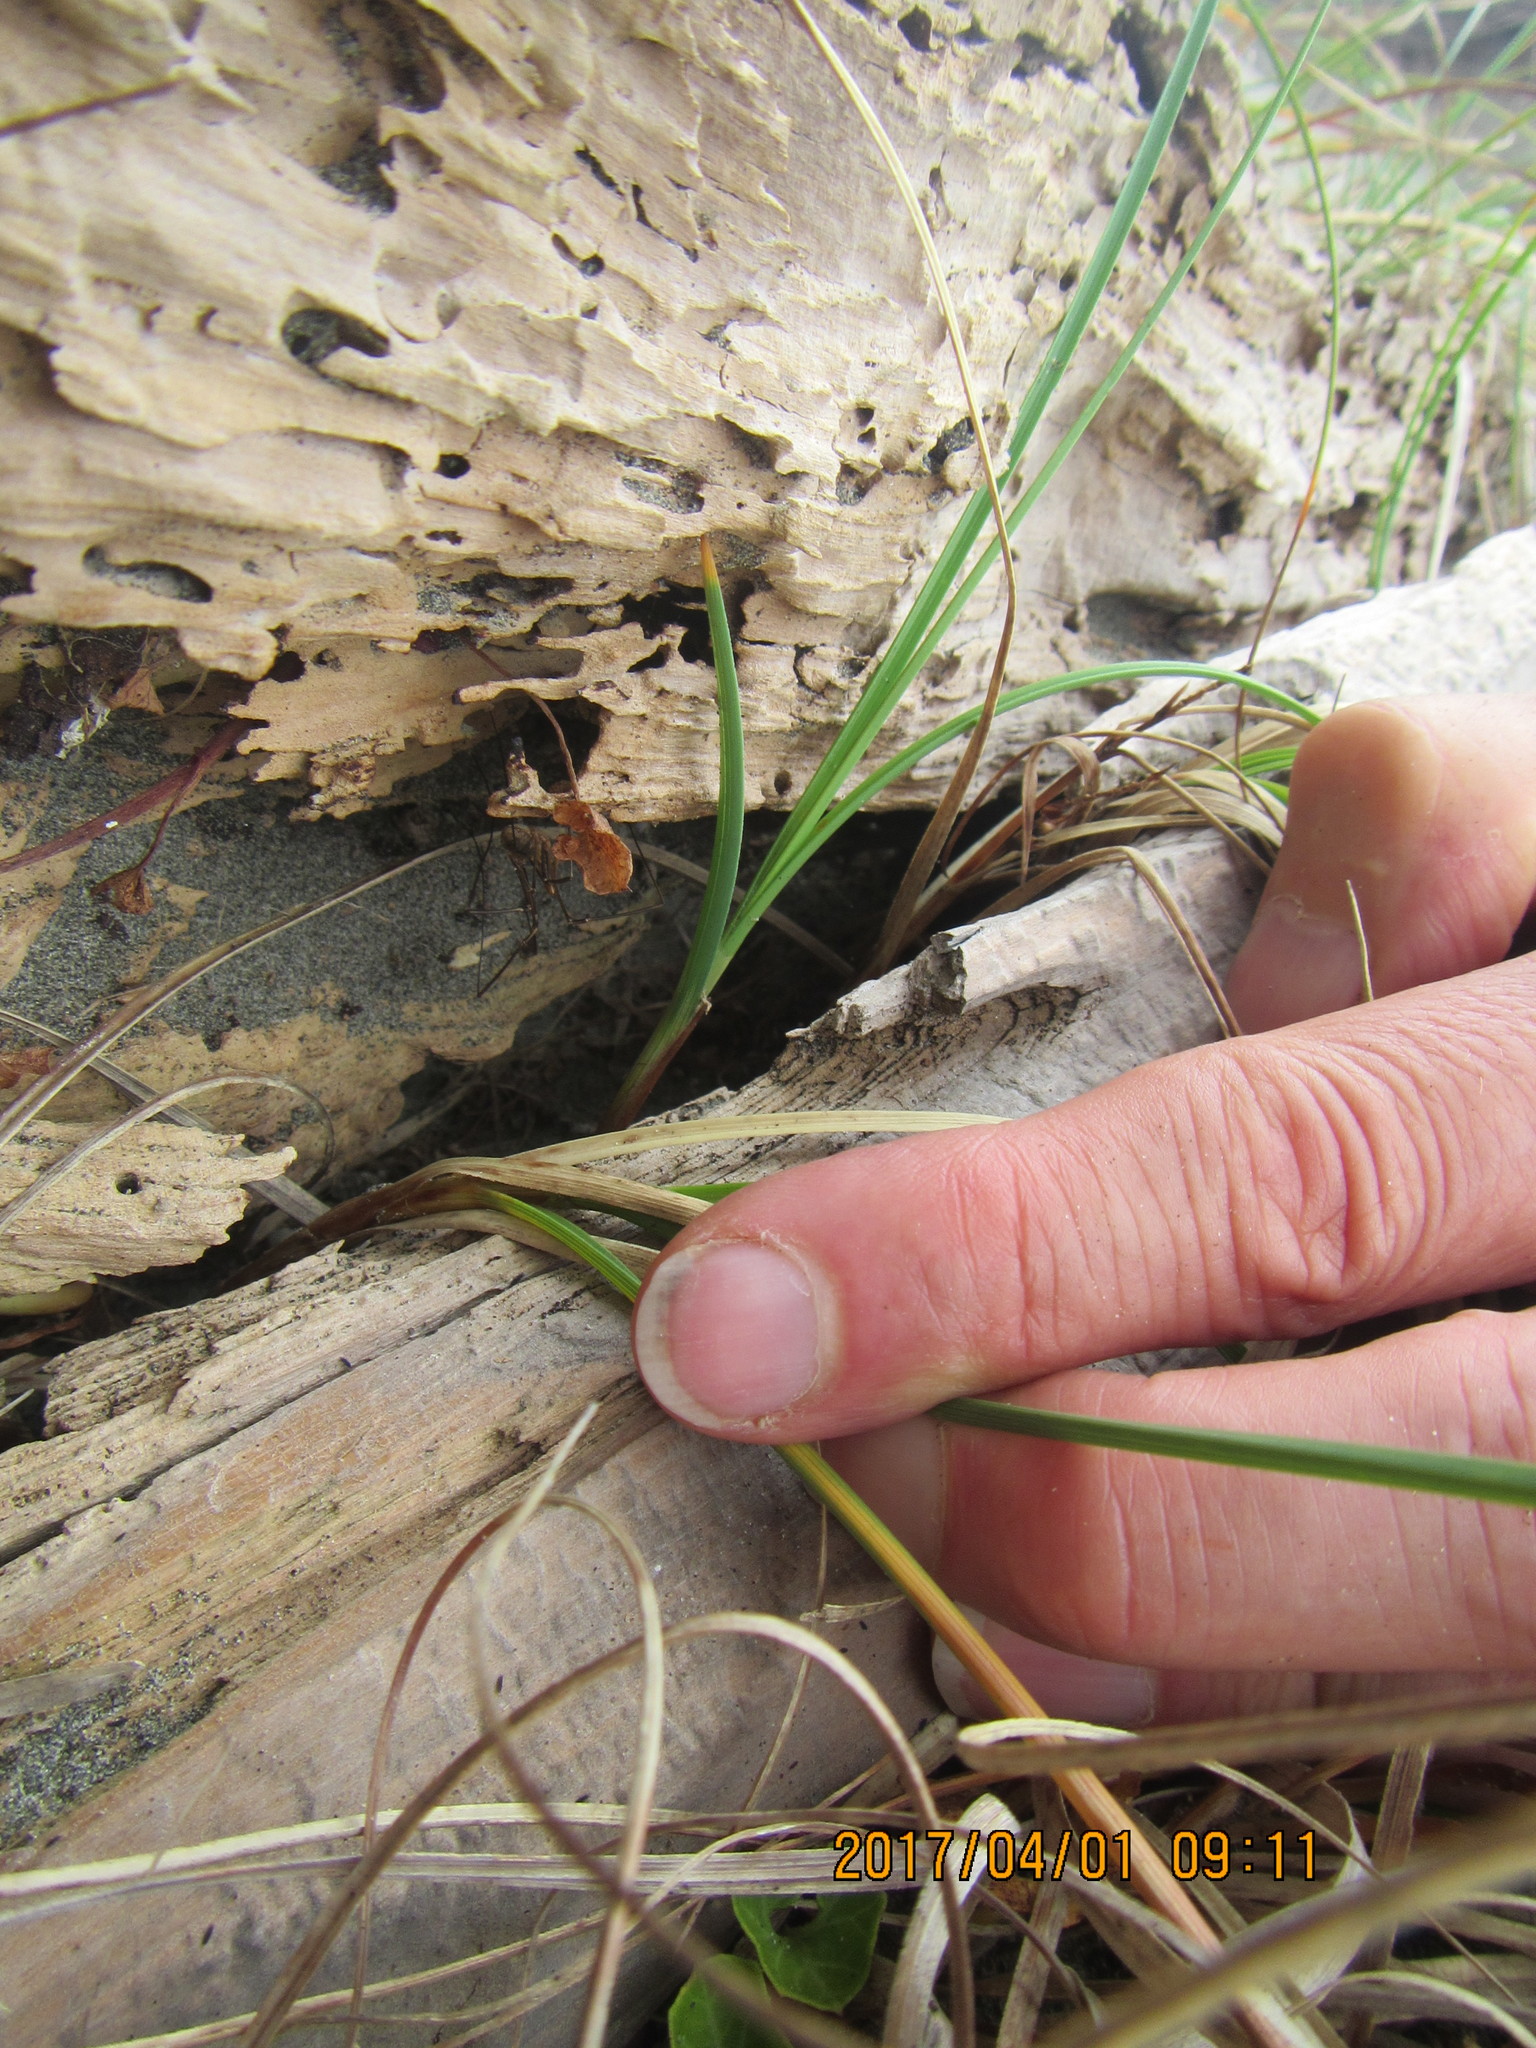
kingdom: Animalia
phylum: Arthropoda
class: Arachnida
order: Opiliones
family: Phalangiidae
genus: Phalangium
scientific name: Phalangium opilio
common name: Daddy longleg
